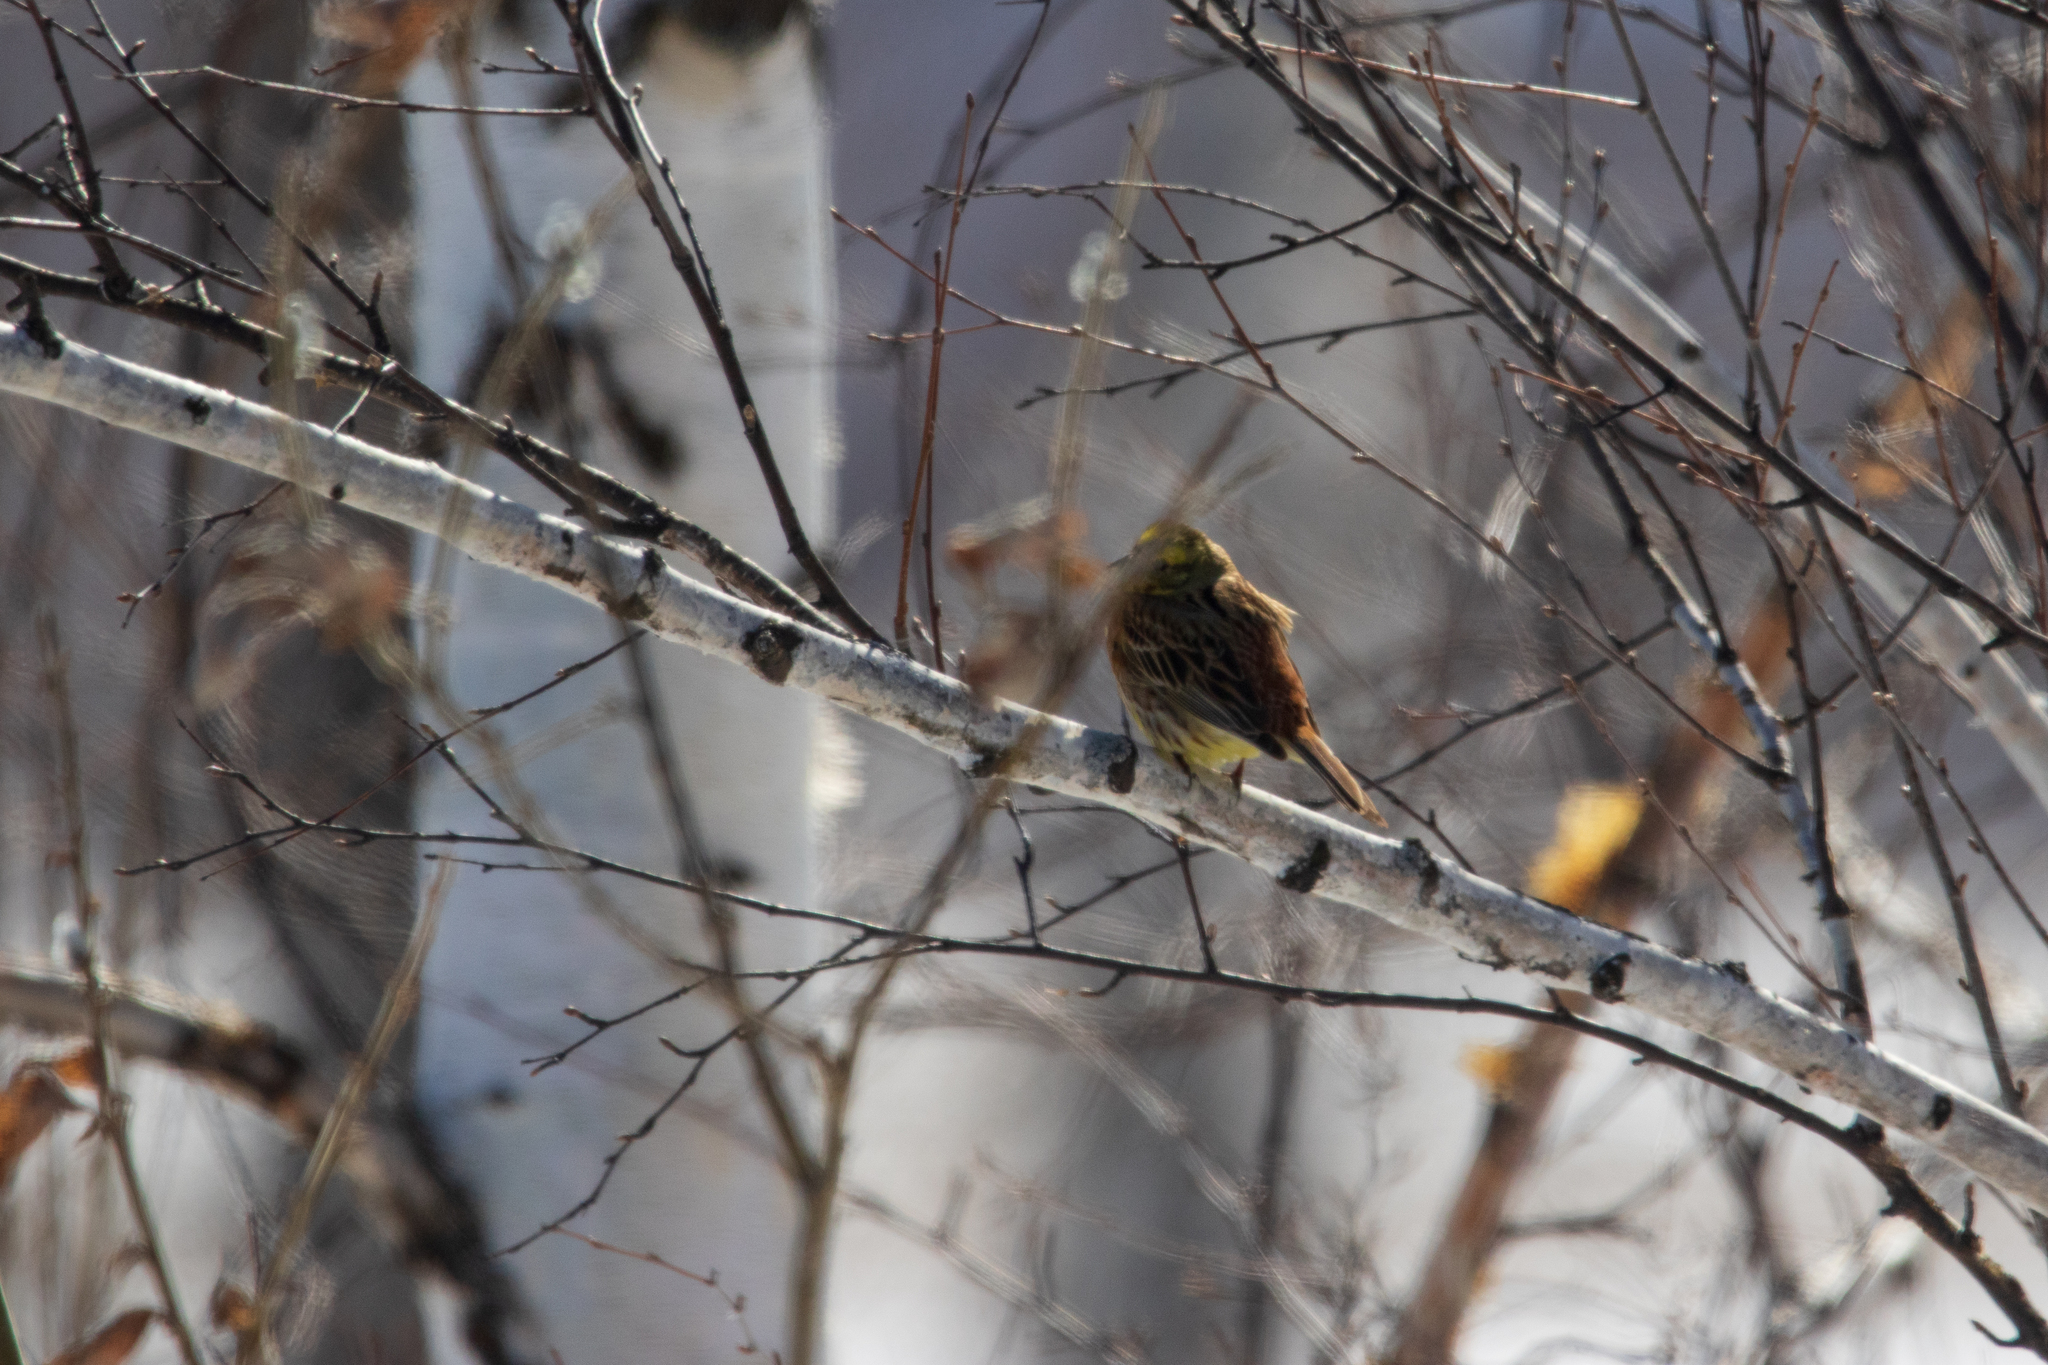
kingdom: Animalia
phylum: Chordata
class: Aves
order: Passeriformes
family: Emberizidae
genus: Emberiza
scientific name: Emberiza citrinella
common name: Yellowhammer
